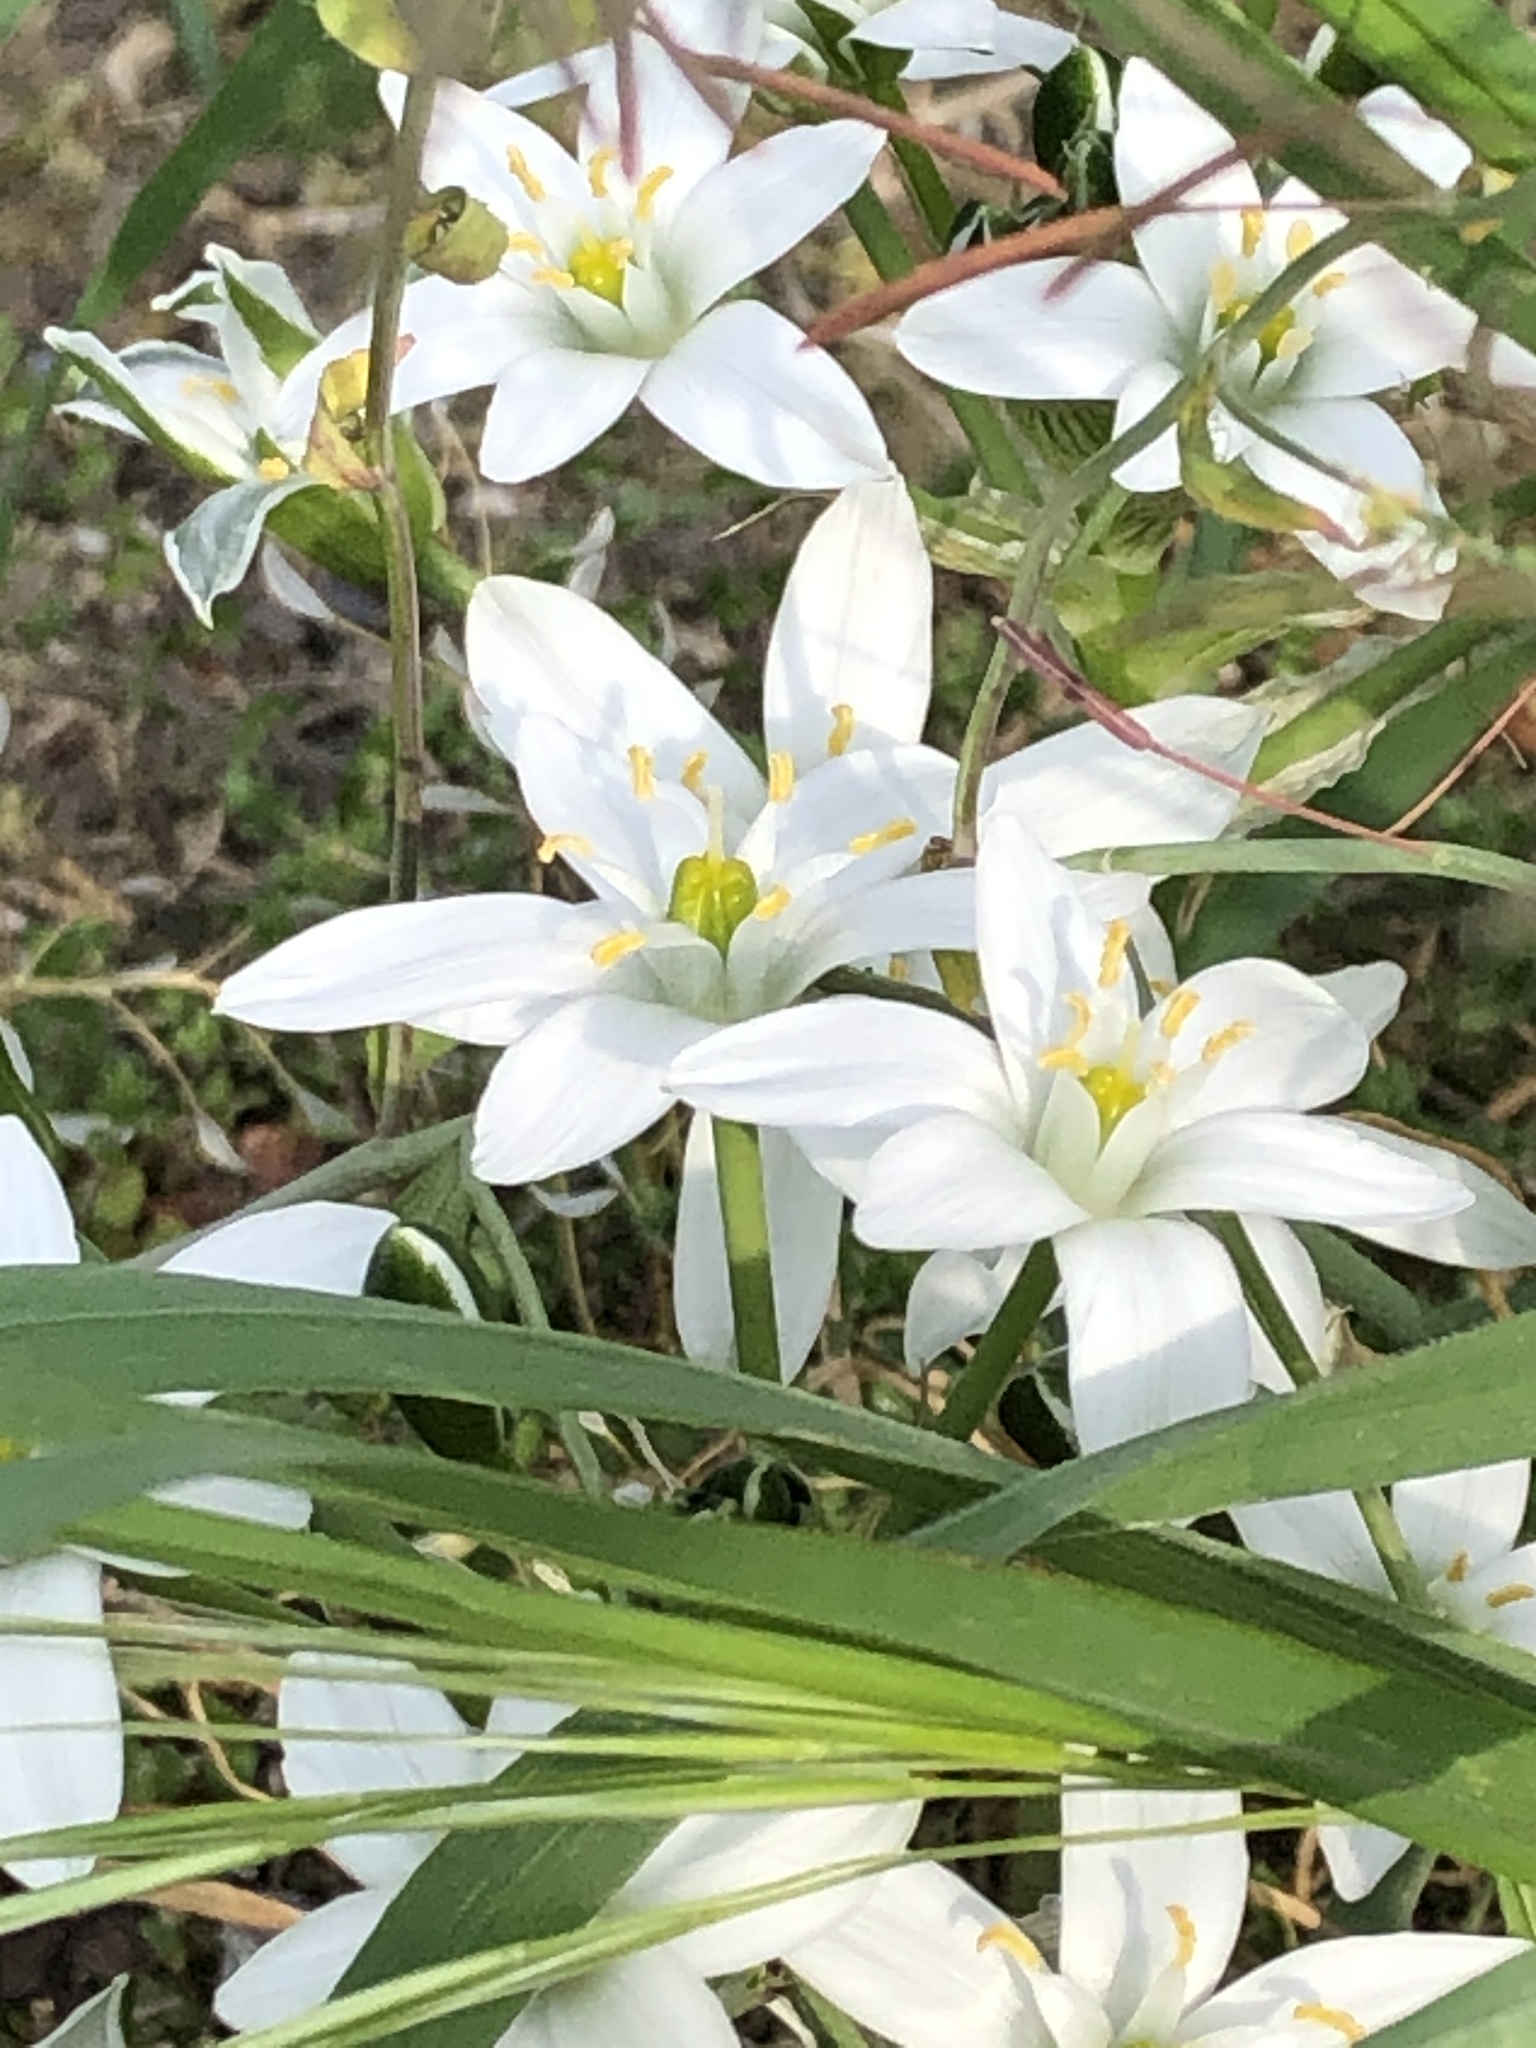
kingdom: Plantae
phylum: Tracheophyta
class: Liliopsida
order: Asparagales
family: Asparagaceae
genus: Ornithogalum
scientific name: Ornithogalum umbellatum
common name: Garden star-of-bethlehem
